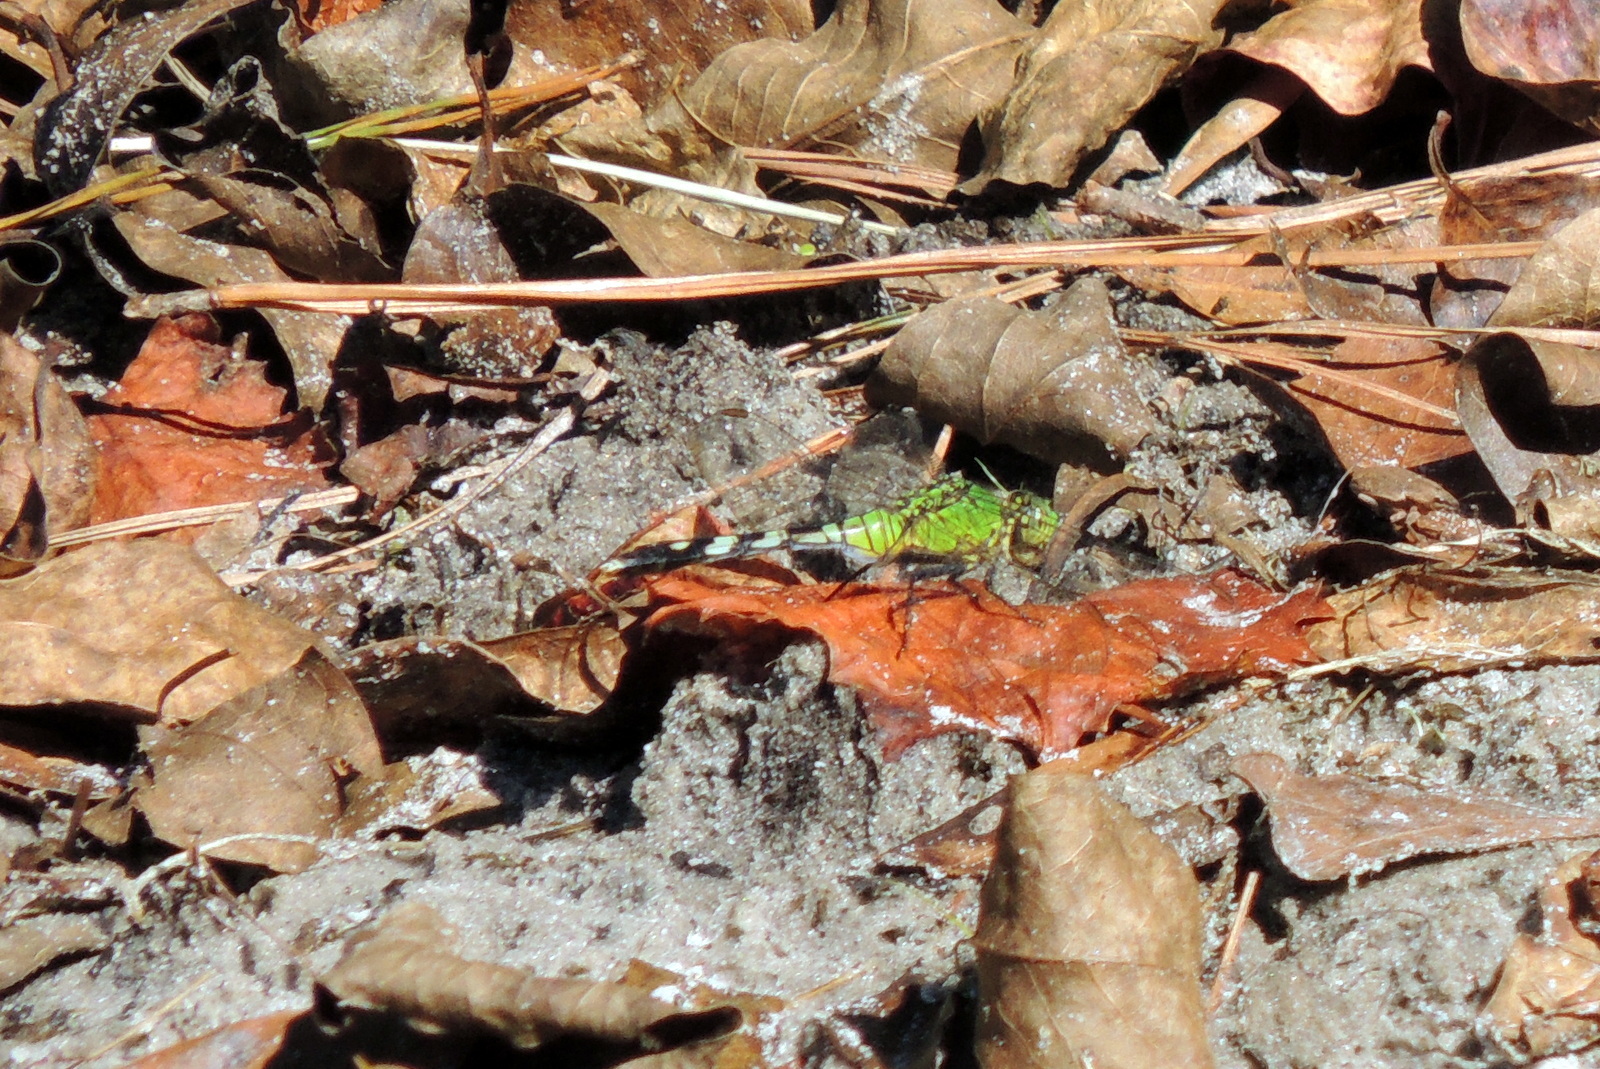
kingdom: Animalia
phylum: Arthropoda
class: Insecta
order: Odonata
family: Libellulidae
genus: Erythemis
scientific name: Erythemis simplicicollis
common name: Eastern pondhawk
